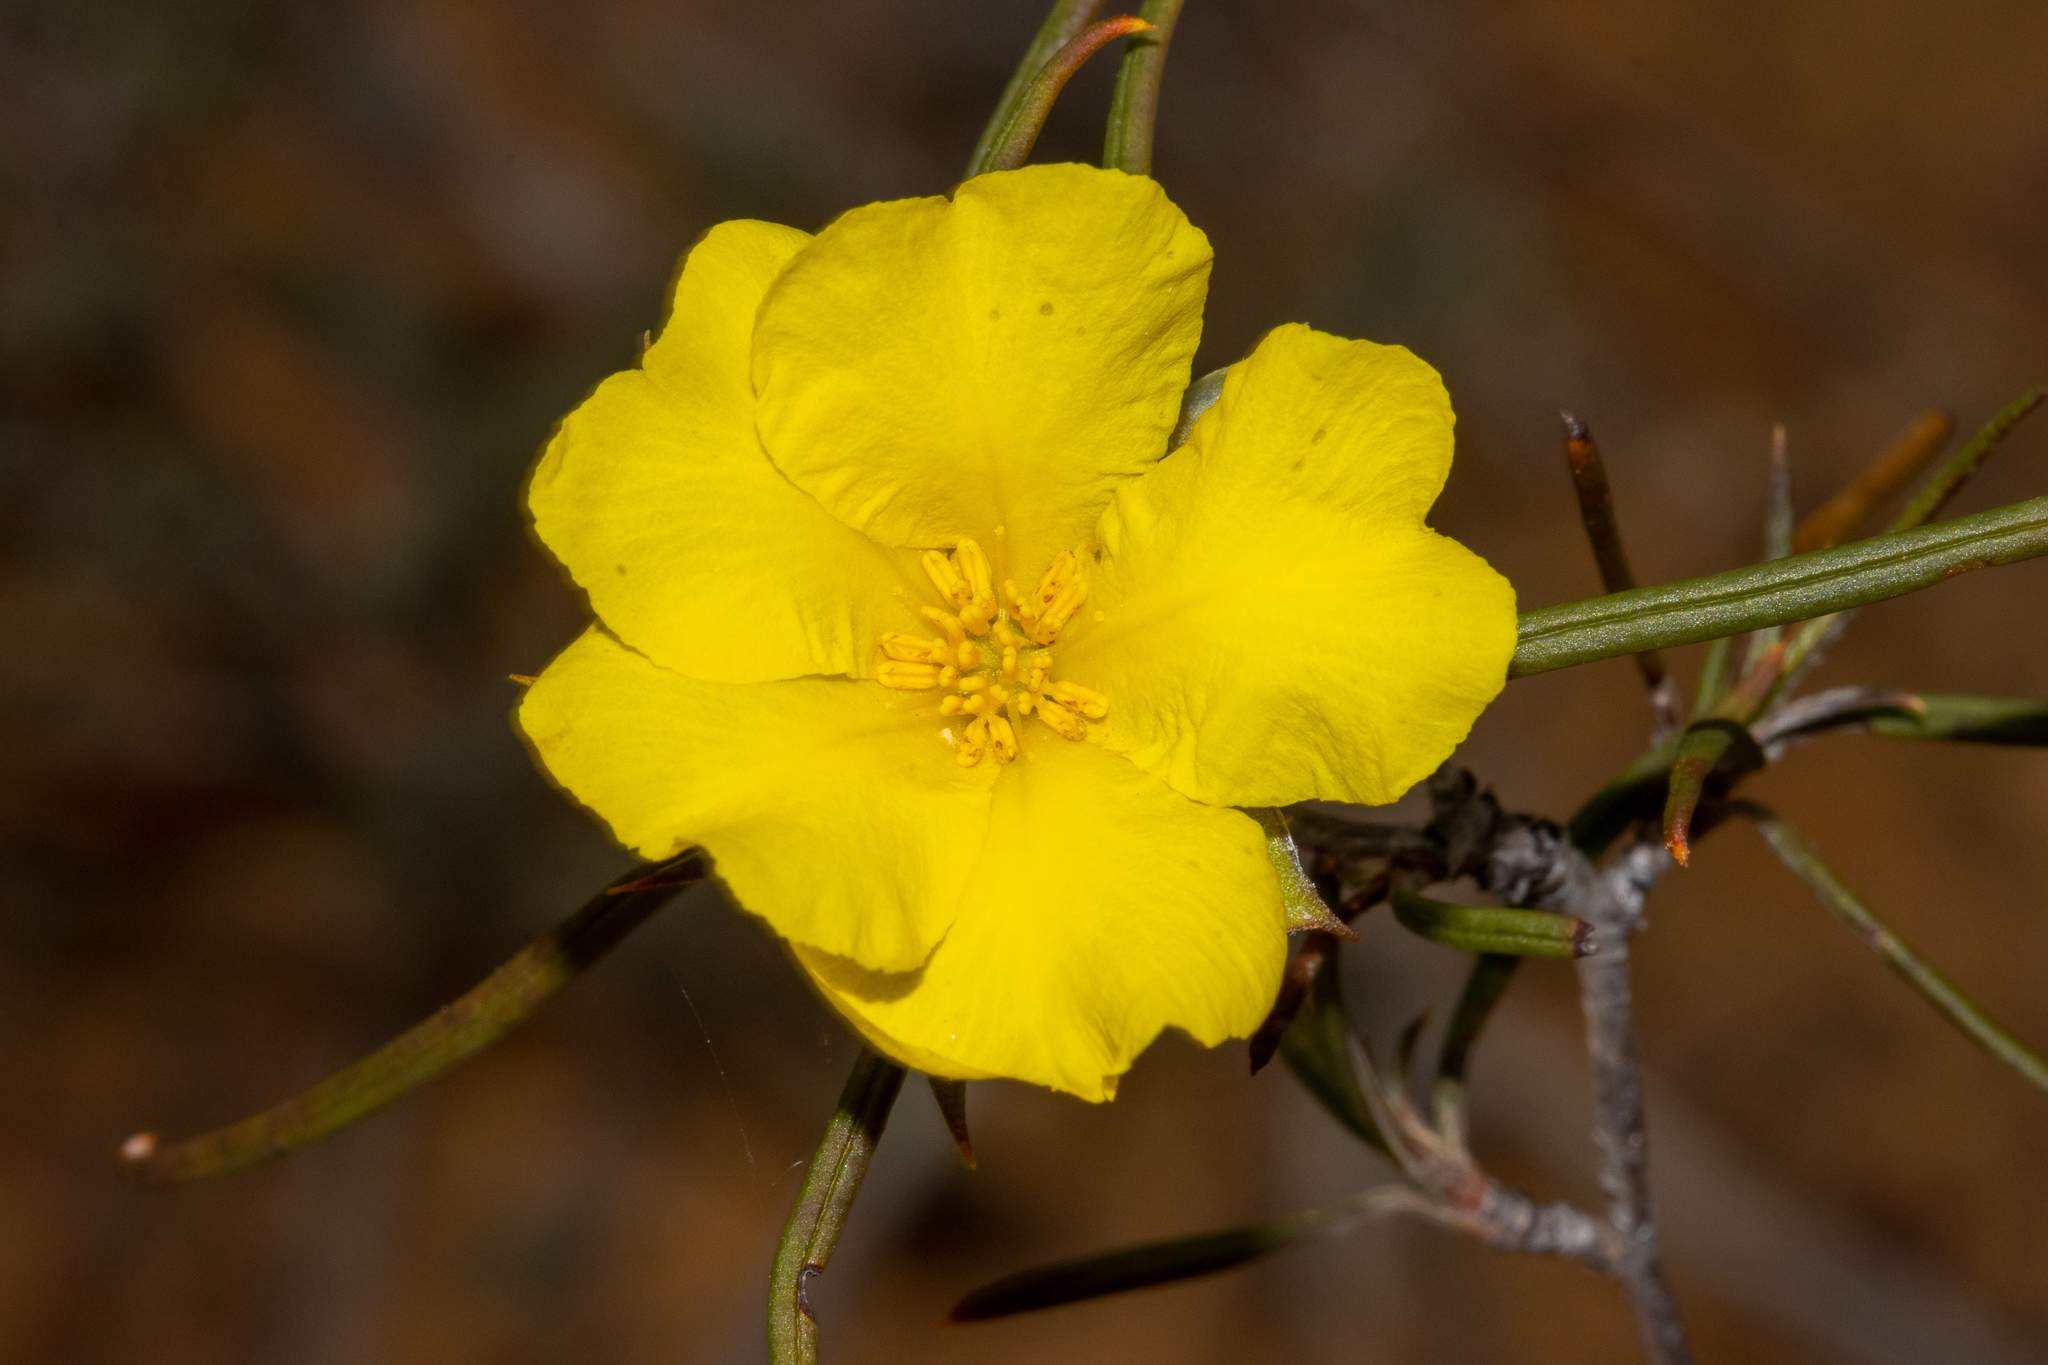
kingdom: Plantae
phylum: Tracheophyta
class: Magnoliopsida
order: Dilleniales
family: Dilleniaceae
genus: Hibbertia
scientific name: Hibbertia
